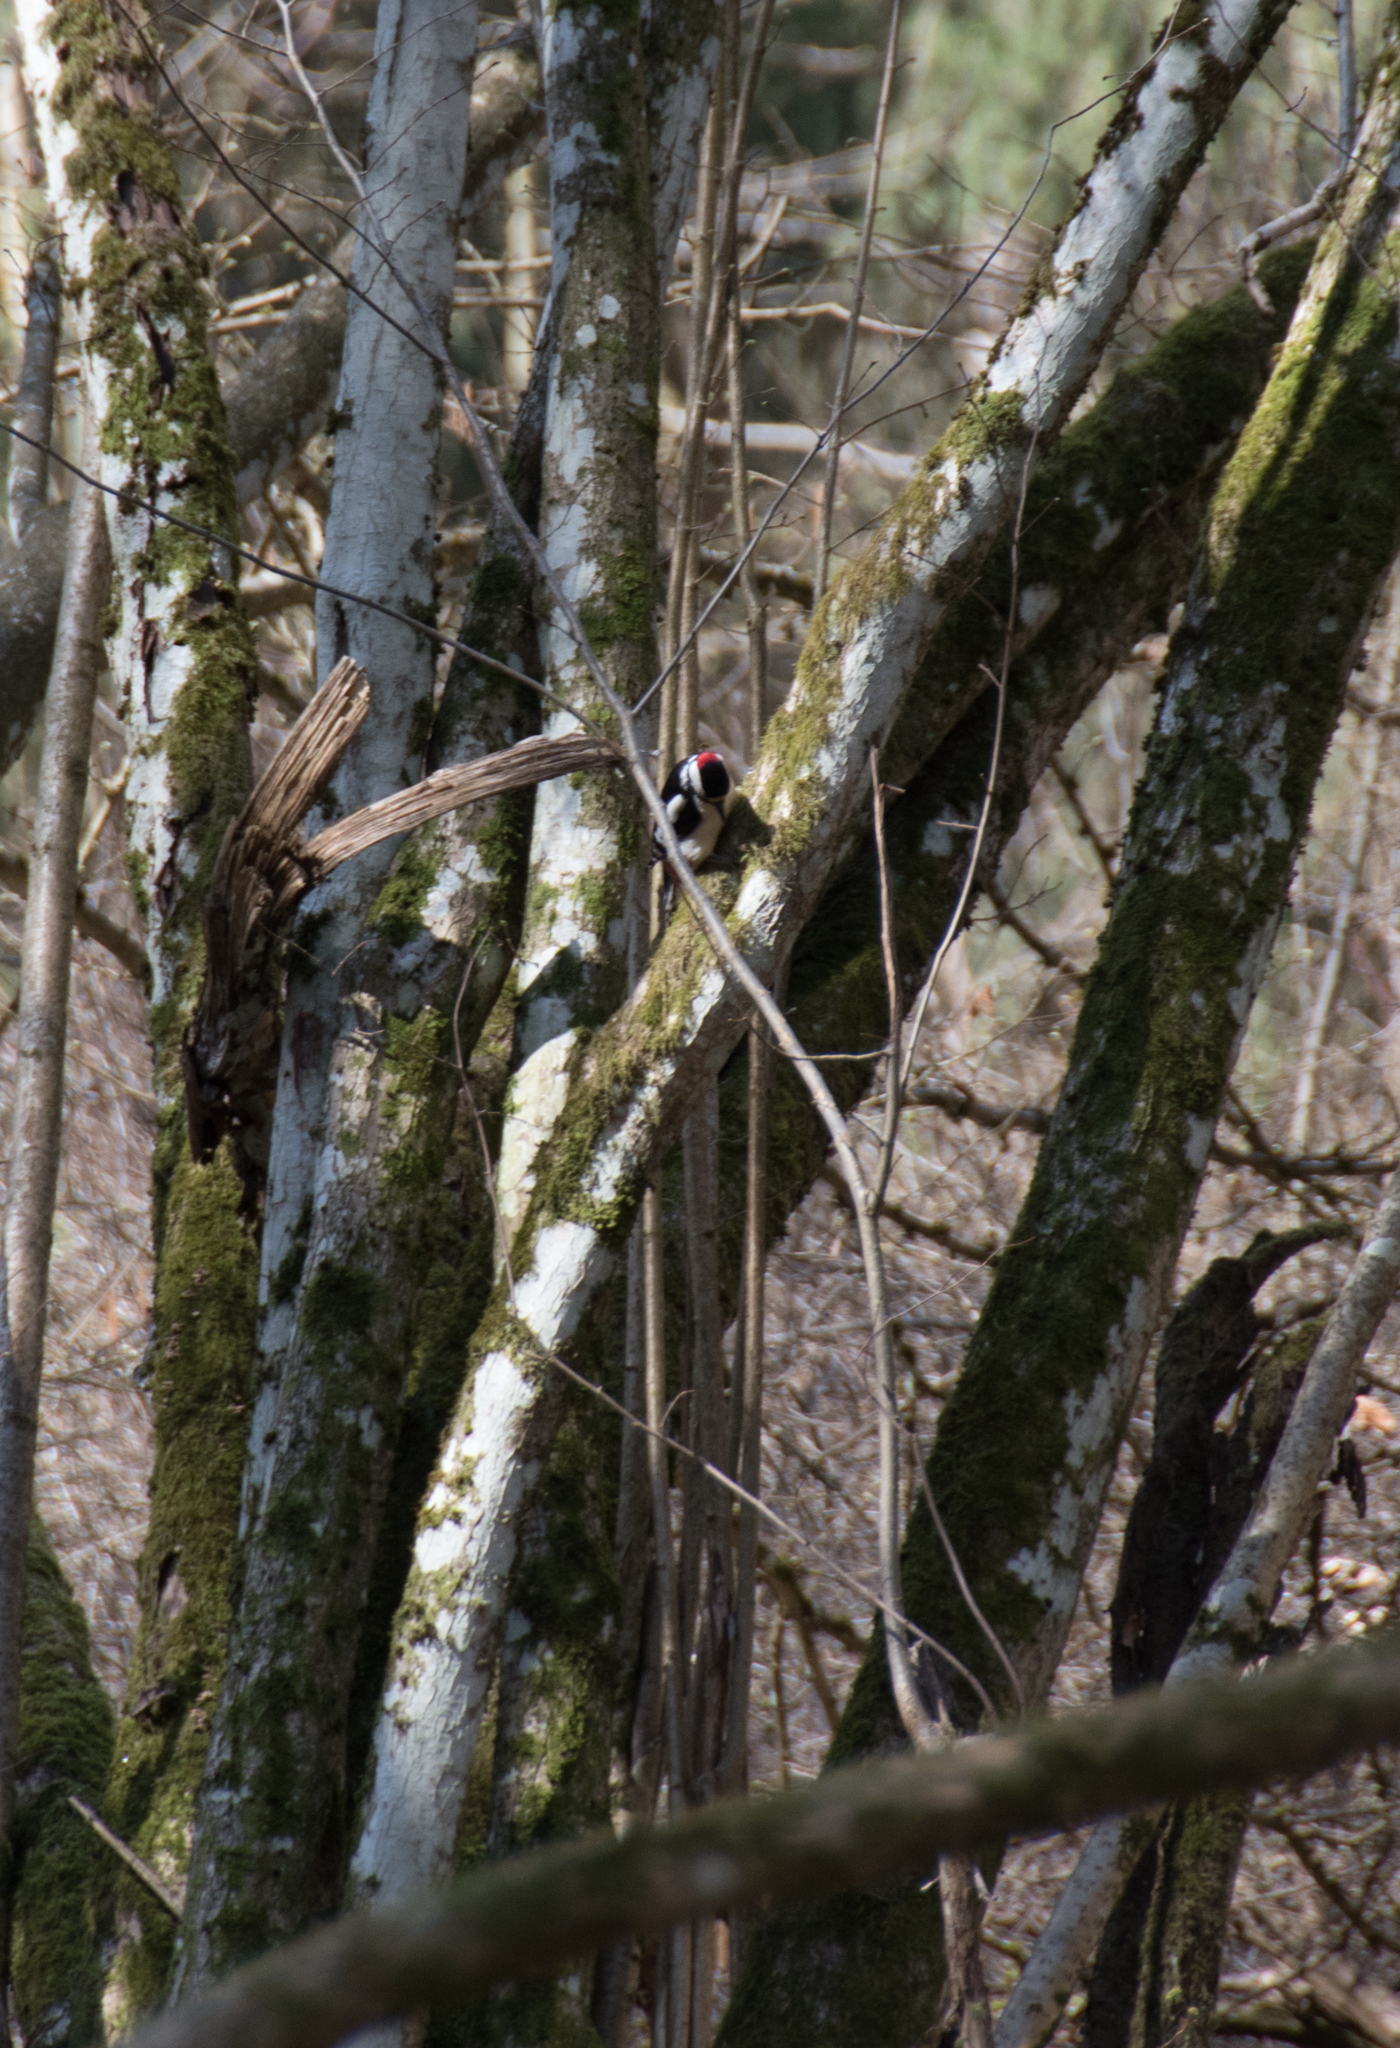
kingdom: Animalia
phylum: Chordata
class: Aves
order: Piciformes
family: Picidae
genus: Dendrocopos
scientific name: Dendrocopos major
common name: Great spotted woodpecker
